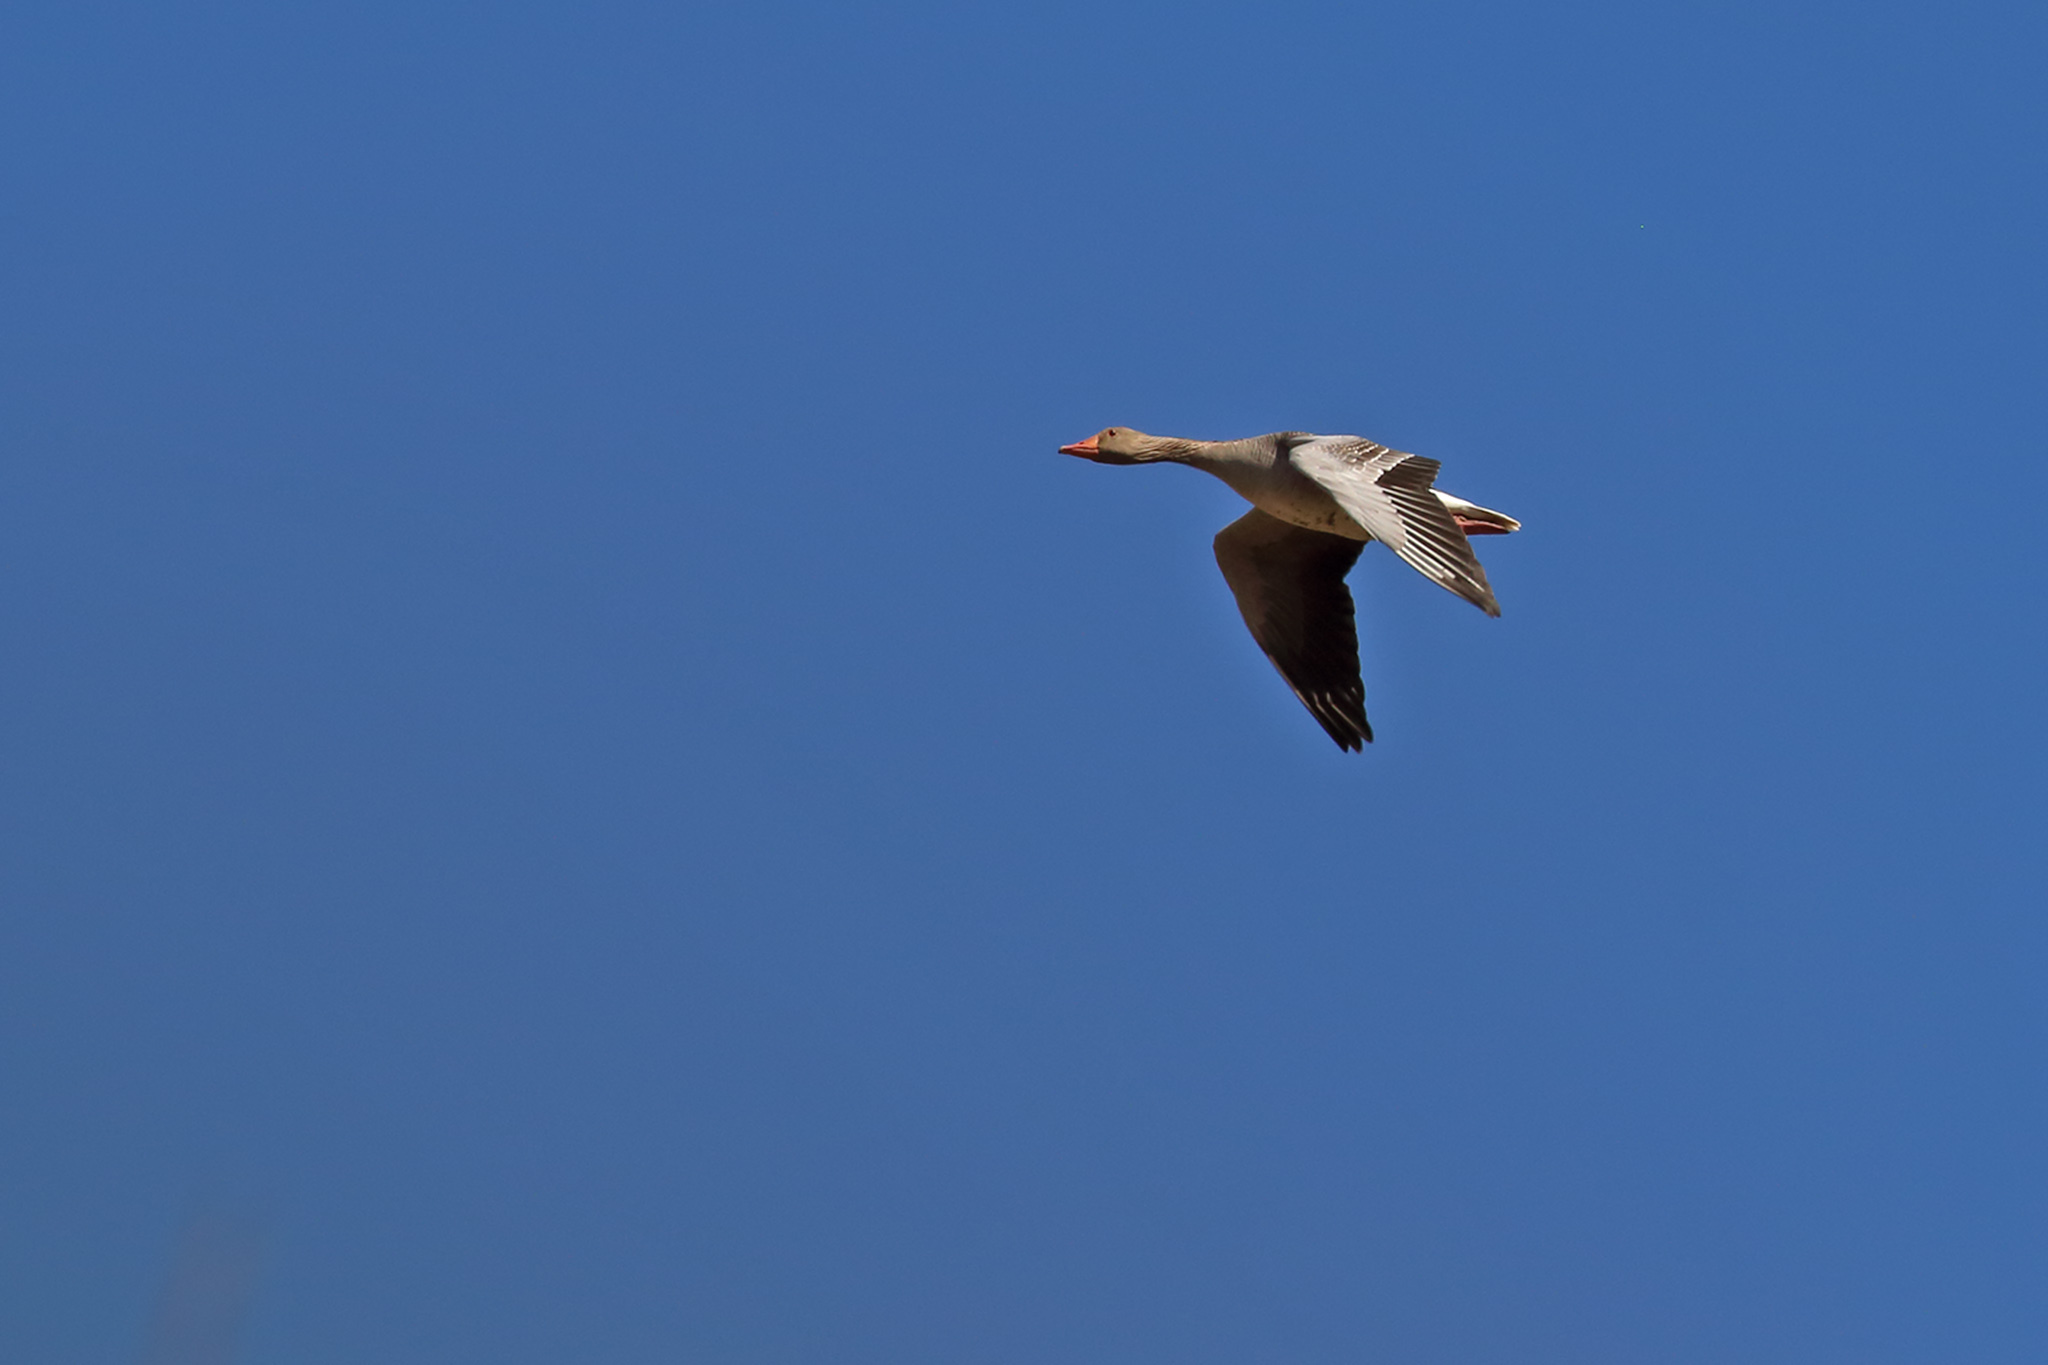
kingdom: Animalia
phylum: Chordata
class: Aves
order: Anseriformes
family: Anatidae
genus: Anser
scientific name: Anser anser
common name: Greylag goose
